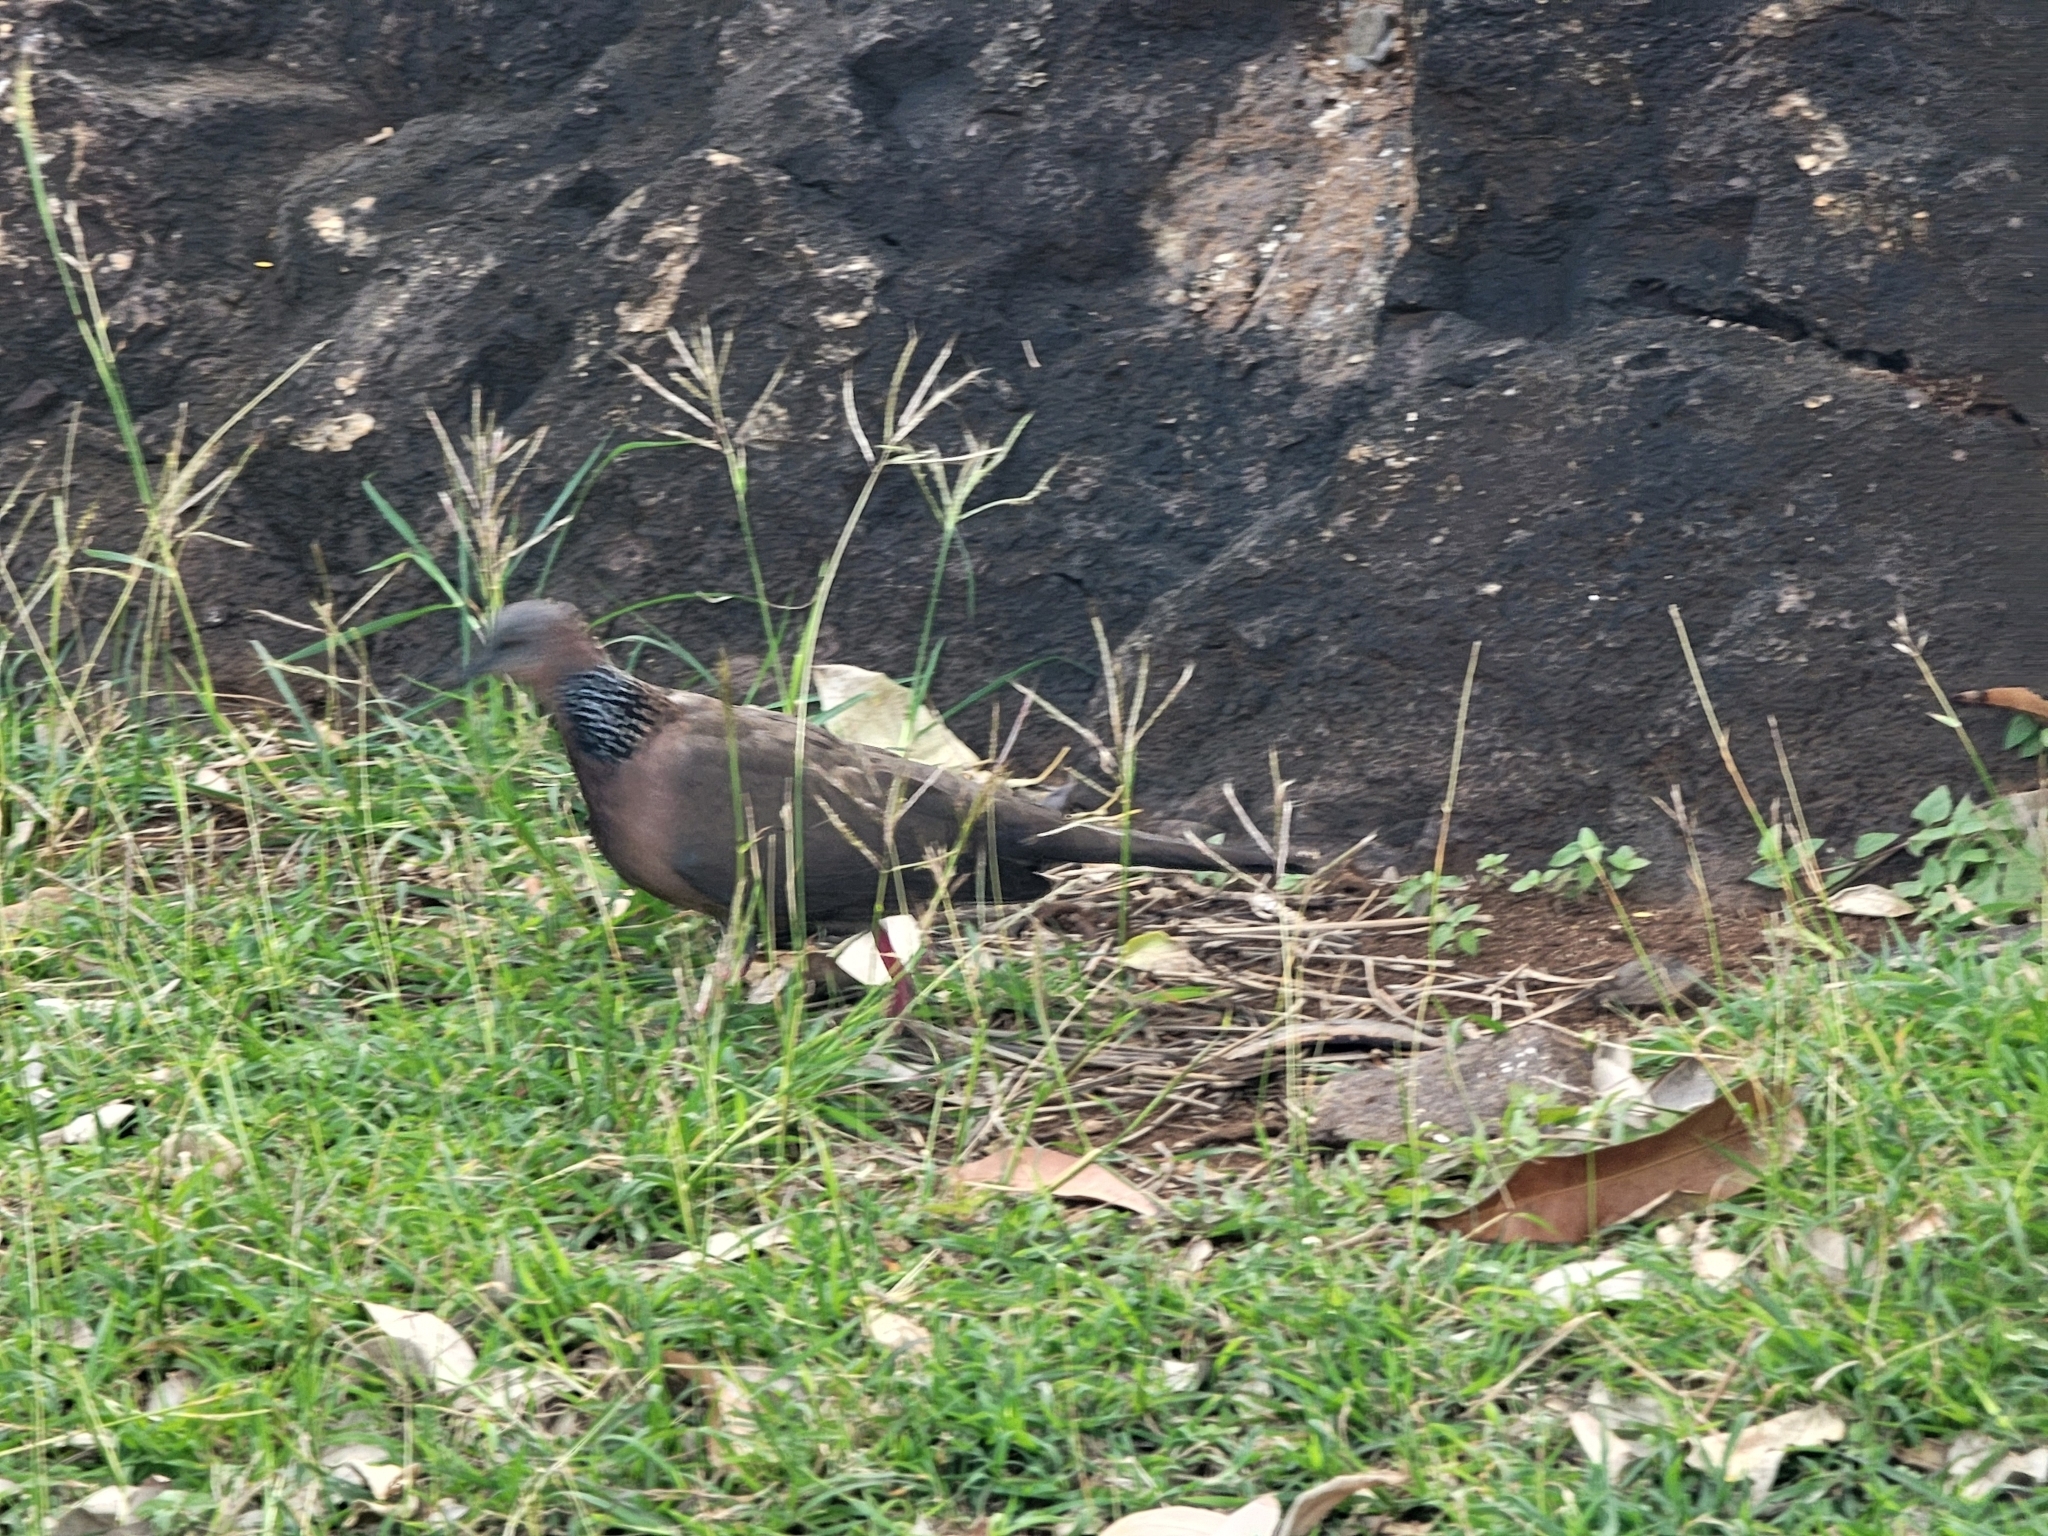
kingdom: Animalia
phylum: Chordata
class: Aves
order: Columbiformes
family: Columbidae
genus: Spilopelia
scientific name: Spilopelia chinensis
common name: Spotted dove
